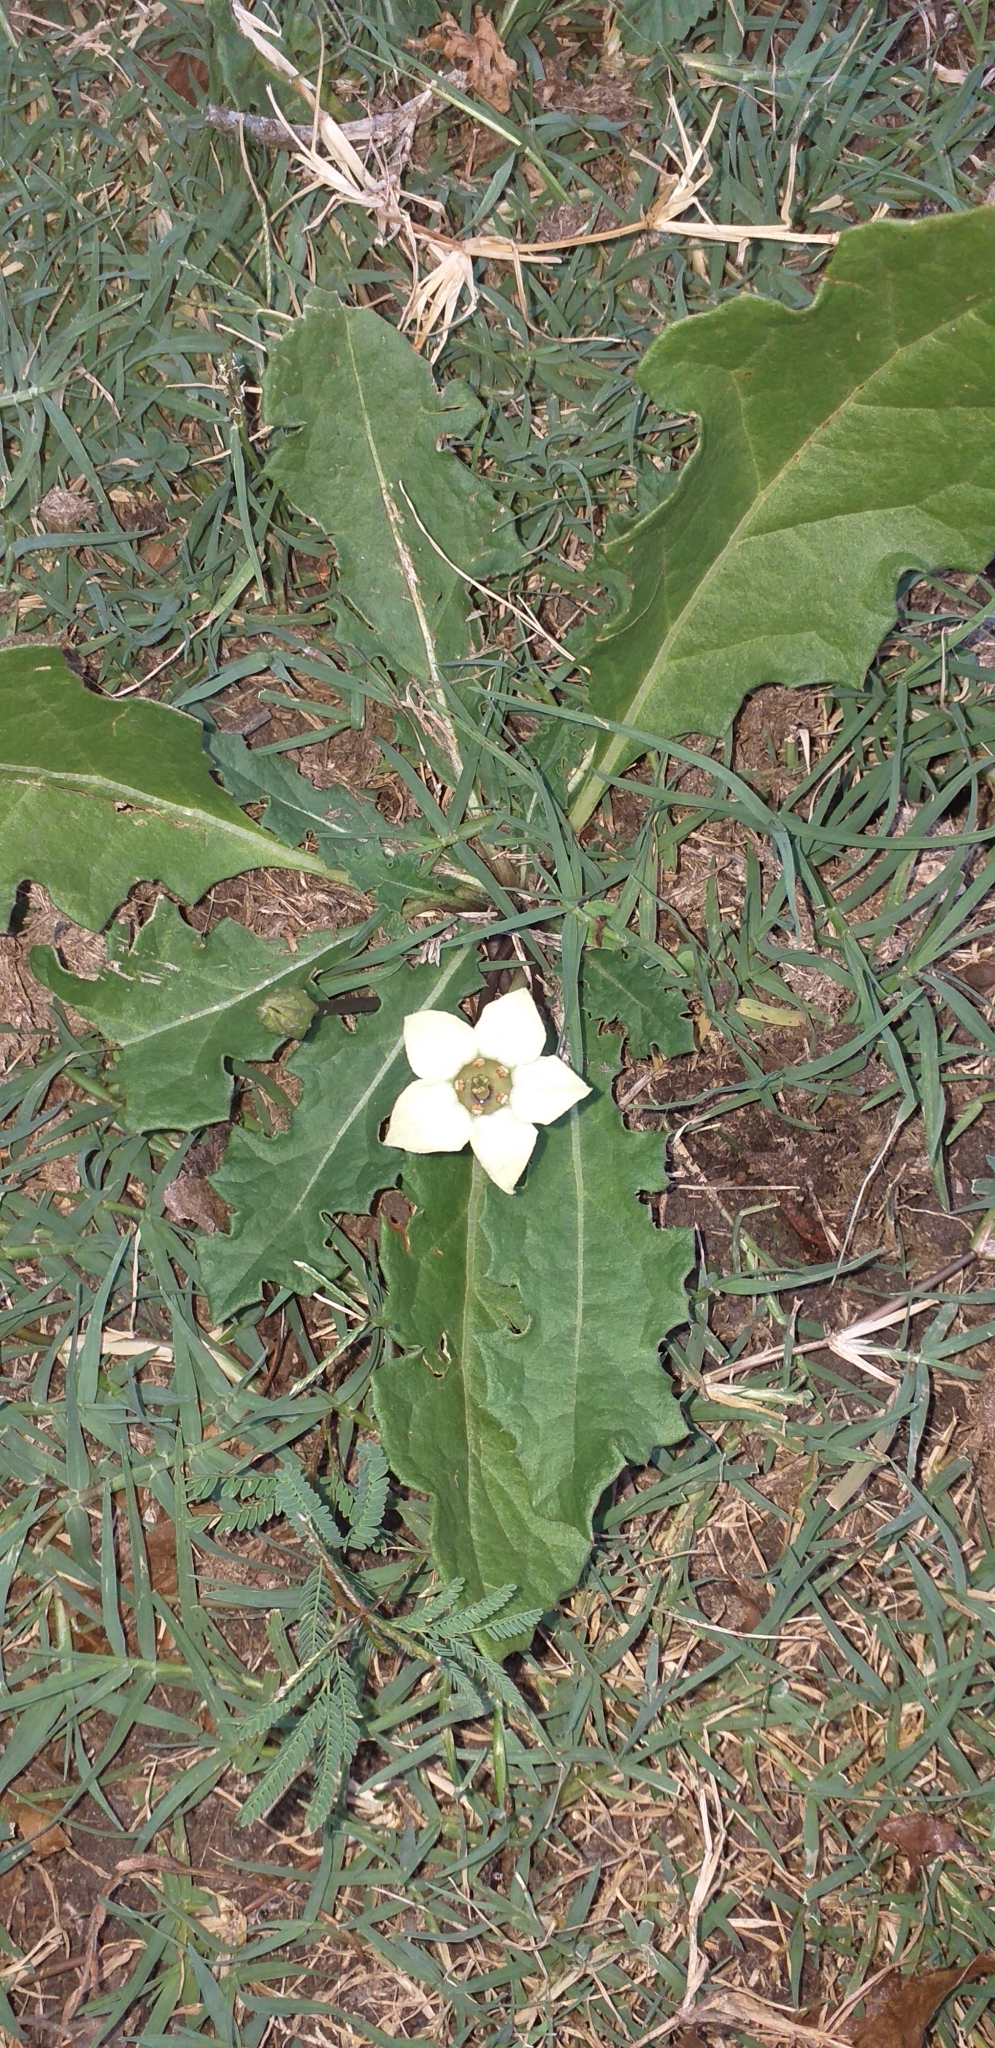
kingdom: Plantae
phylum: Tracheophyta
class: Magnoliopsida
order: Solanales
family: Solanaceae
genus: Jaborosa
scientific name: Jaborosa runcinata
